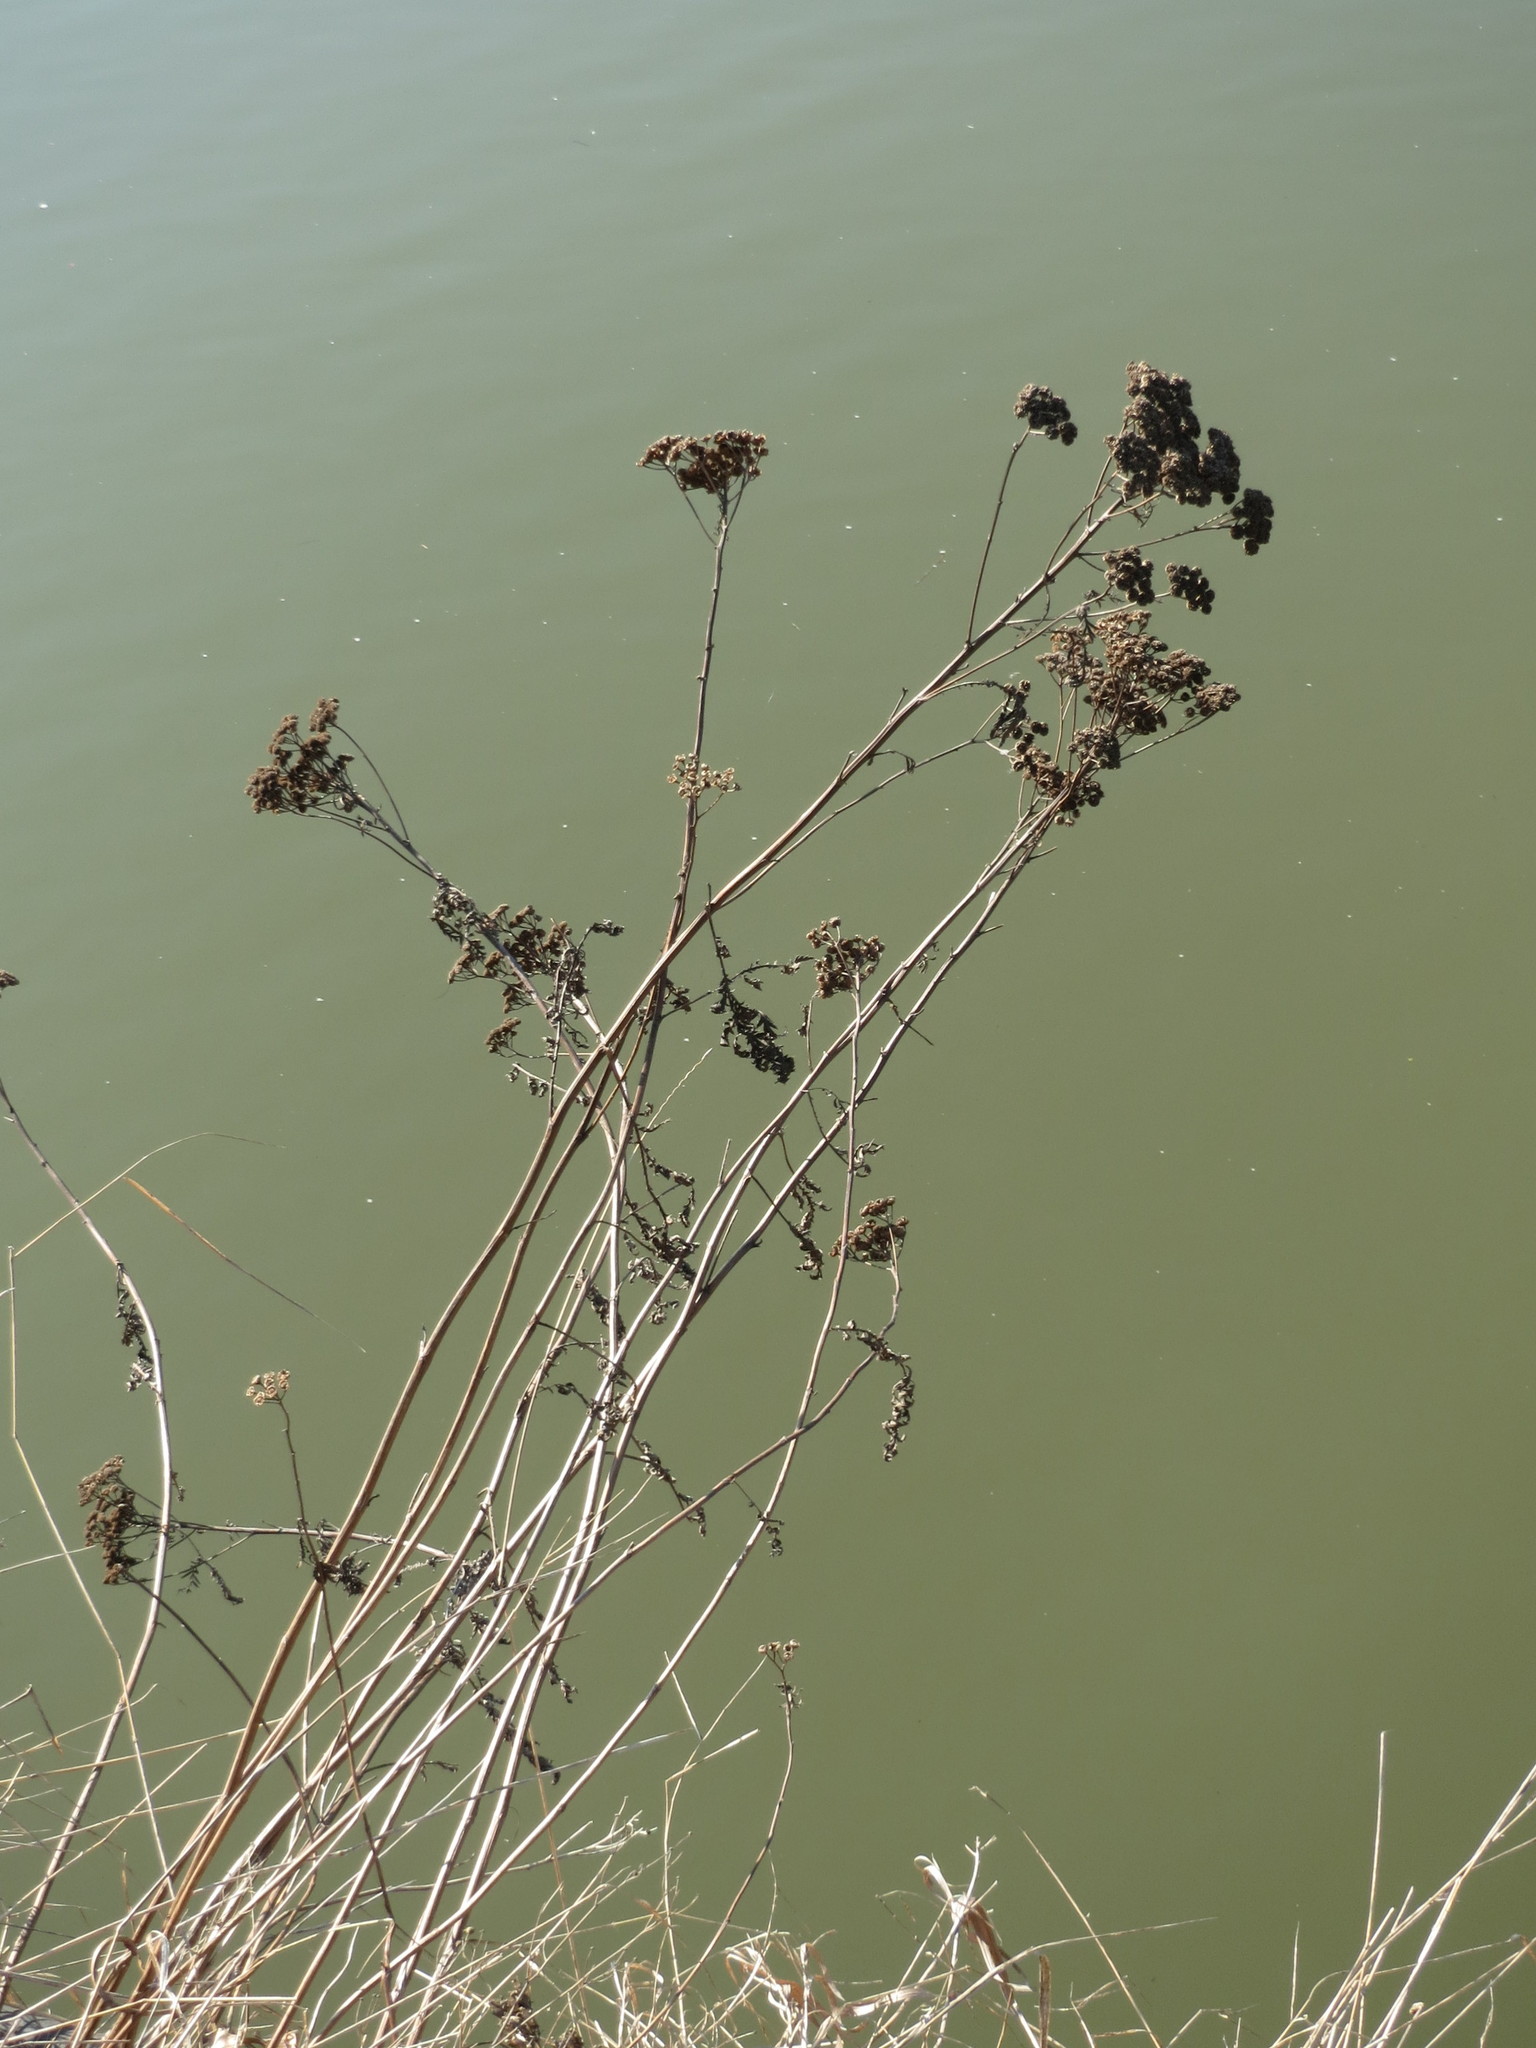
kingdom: Plantae
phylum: Tracheophyta
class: Magnoliopsida
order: Asterales
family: Asteraceae
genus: Tanacetum
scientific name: Tanacetum vulgare
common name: Common tansy
